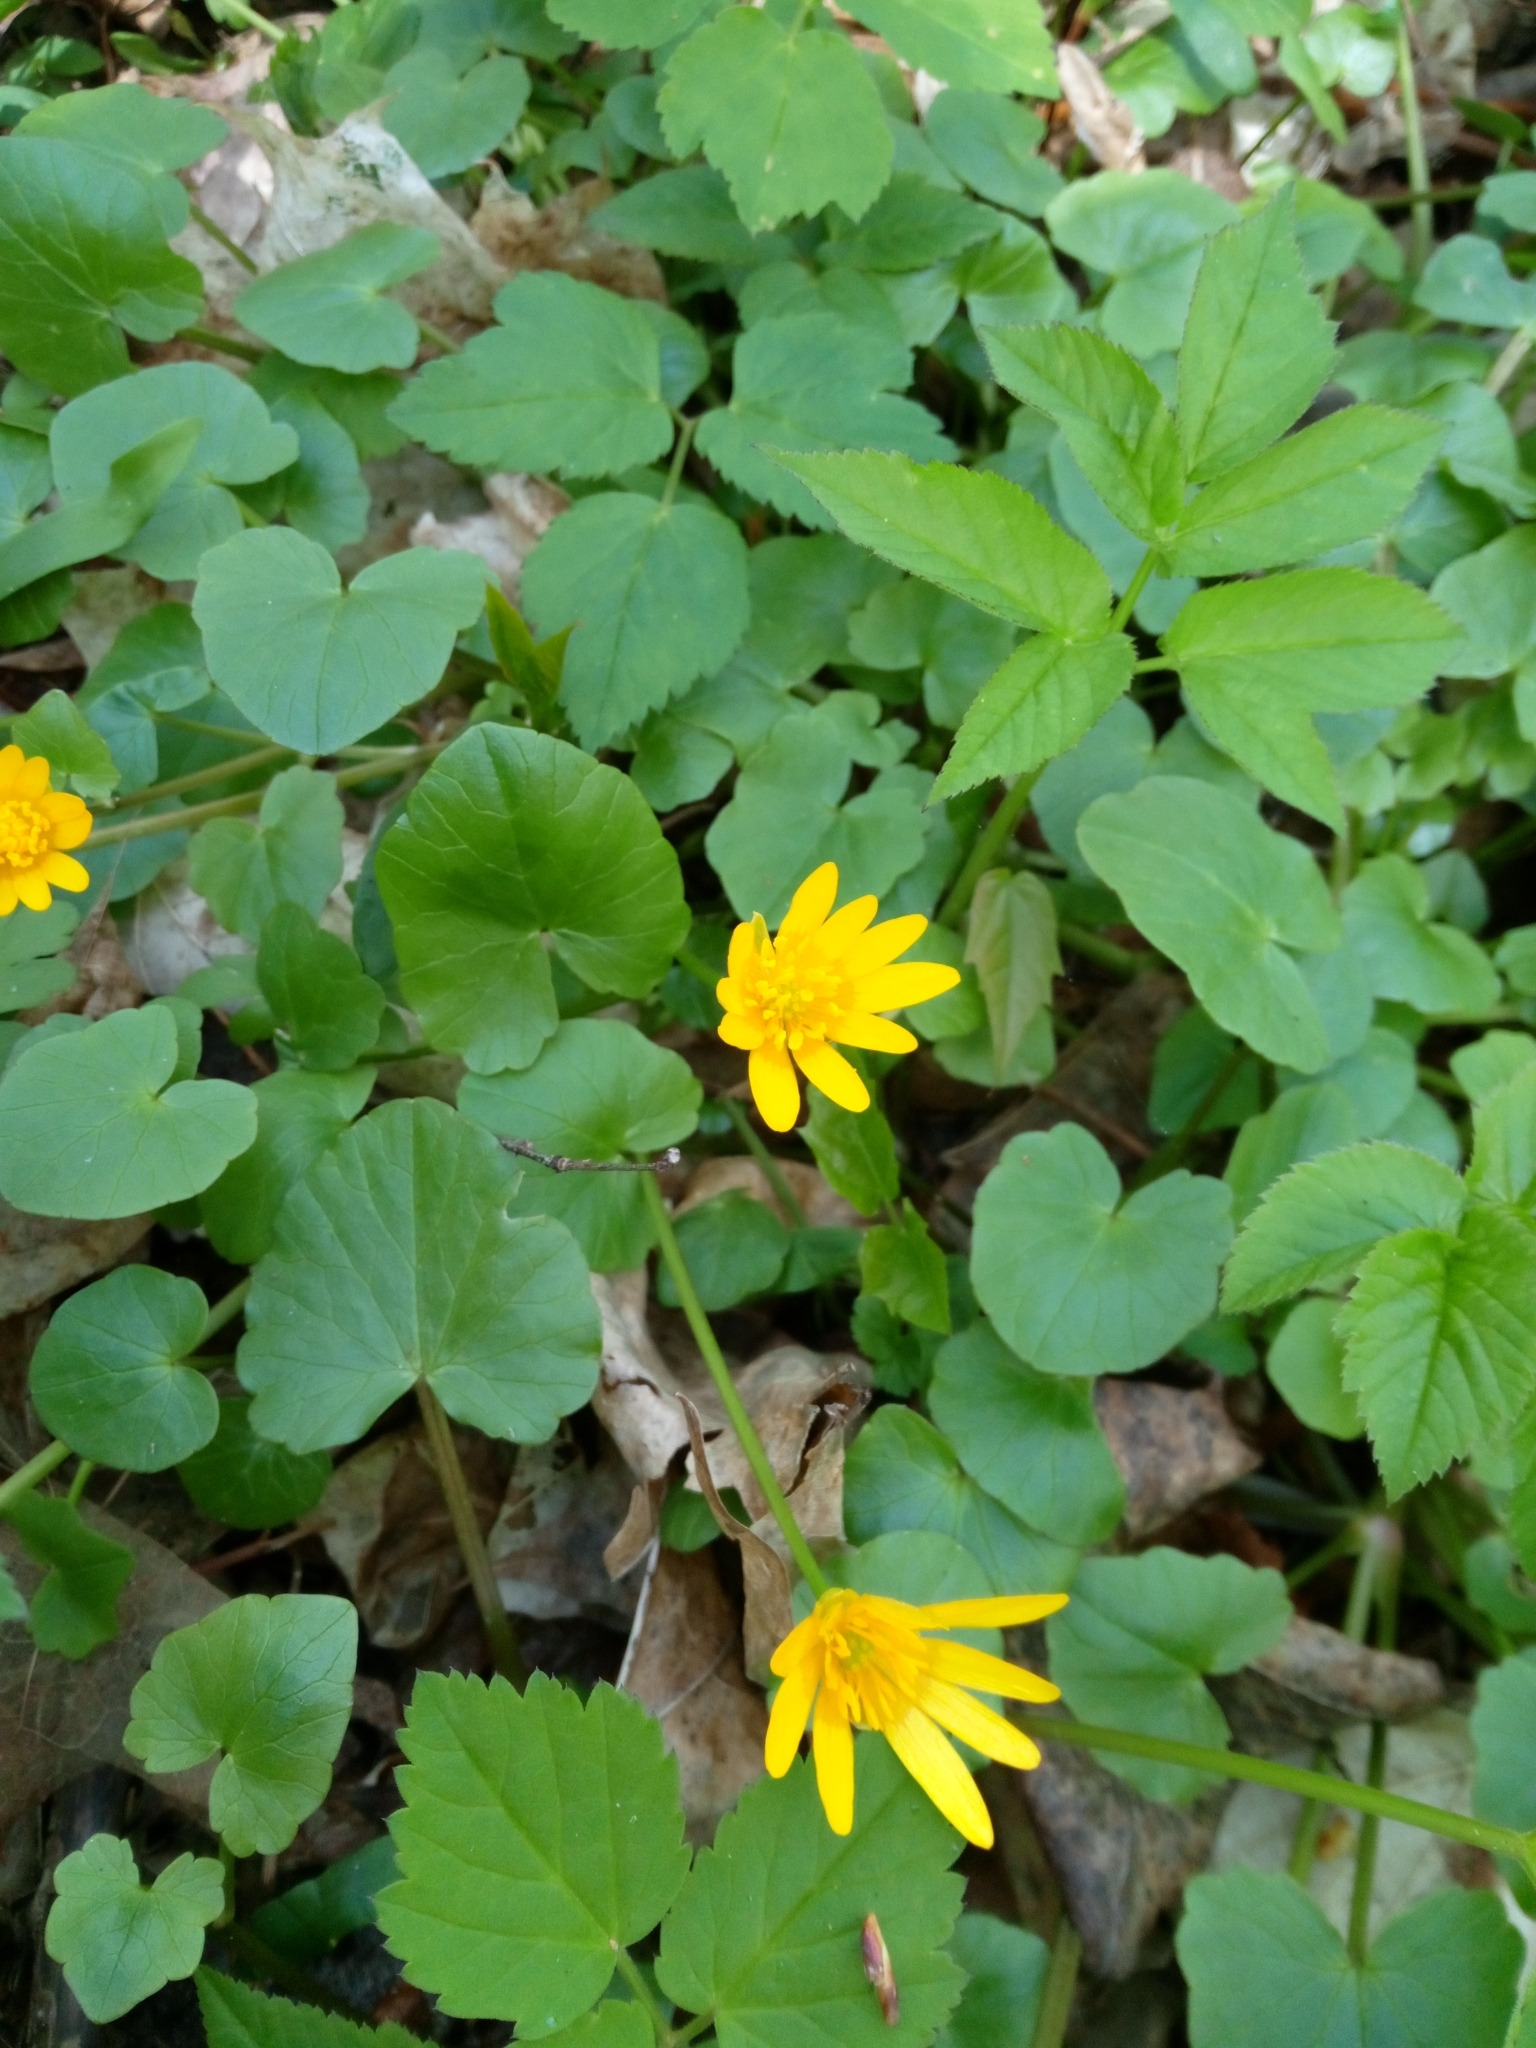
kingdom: Plantae
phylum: Tracheophyta
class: Magnoliopsida
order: Ranunculales
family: Ranunculaceae
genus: Ficaria
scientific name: Ficaria verna
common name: Lesser celandine
